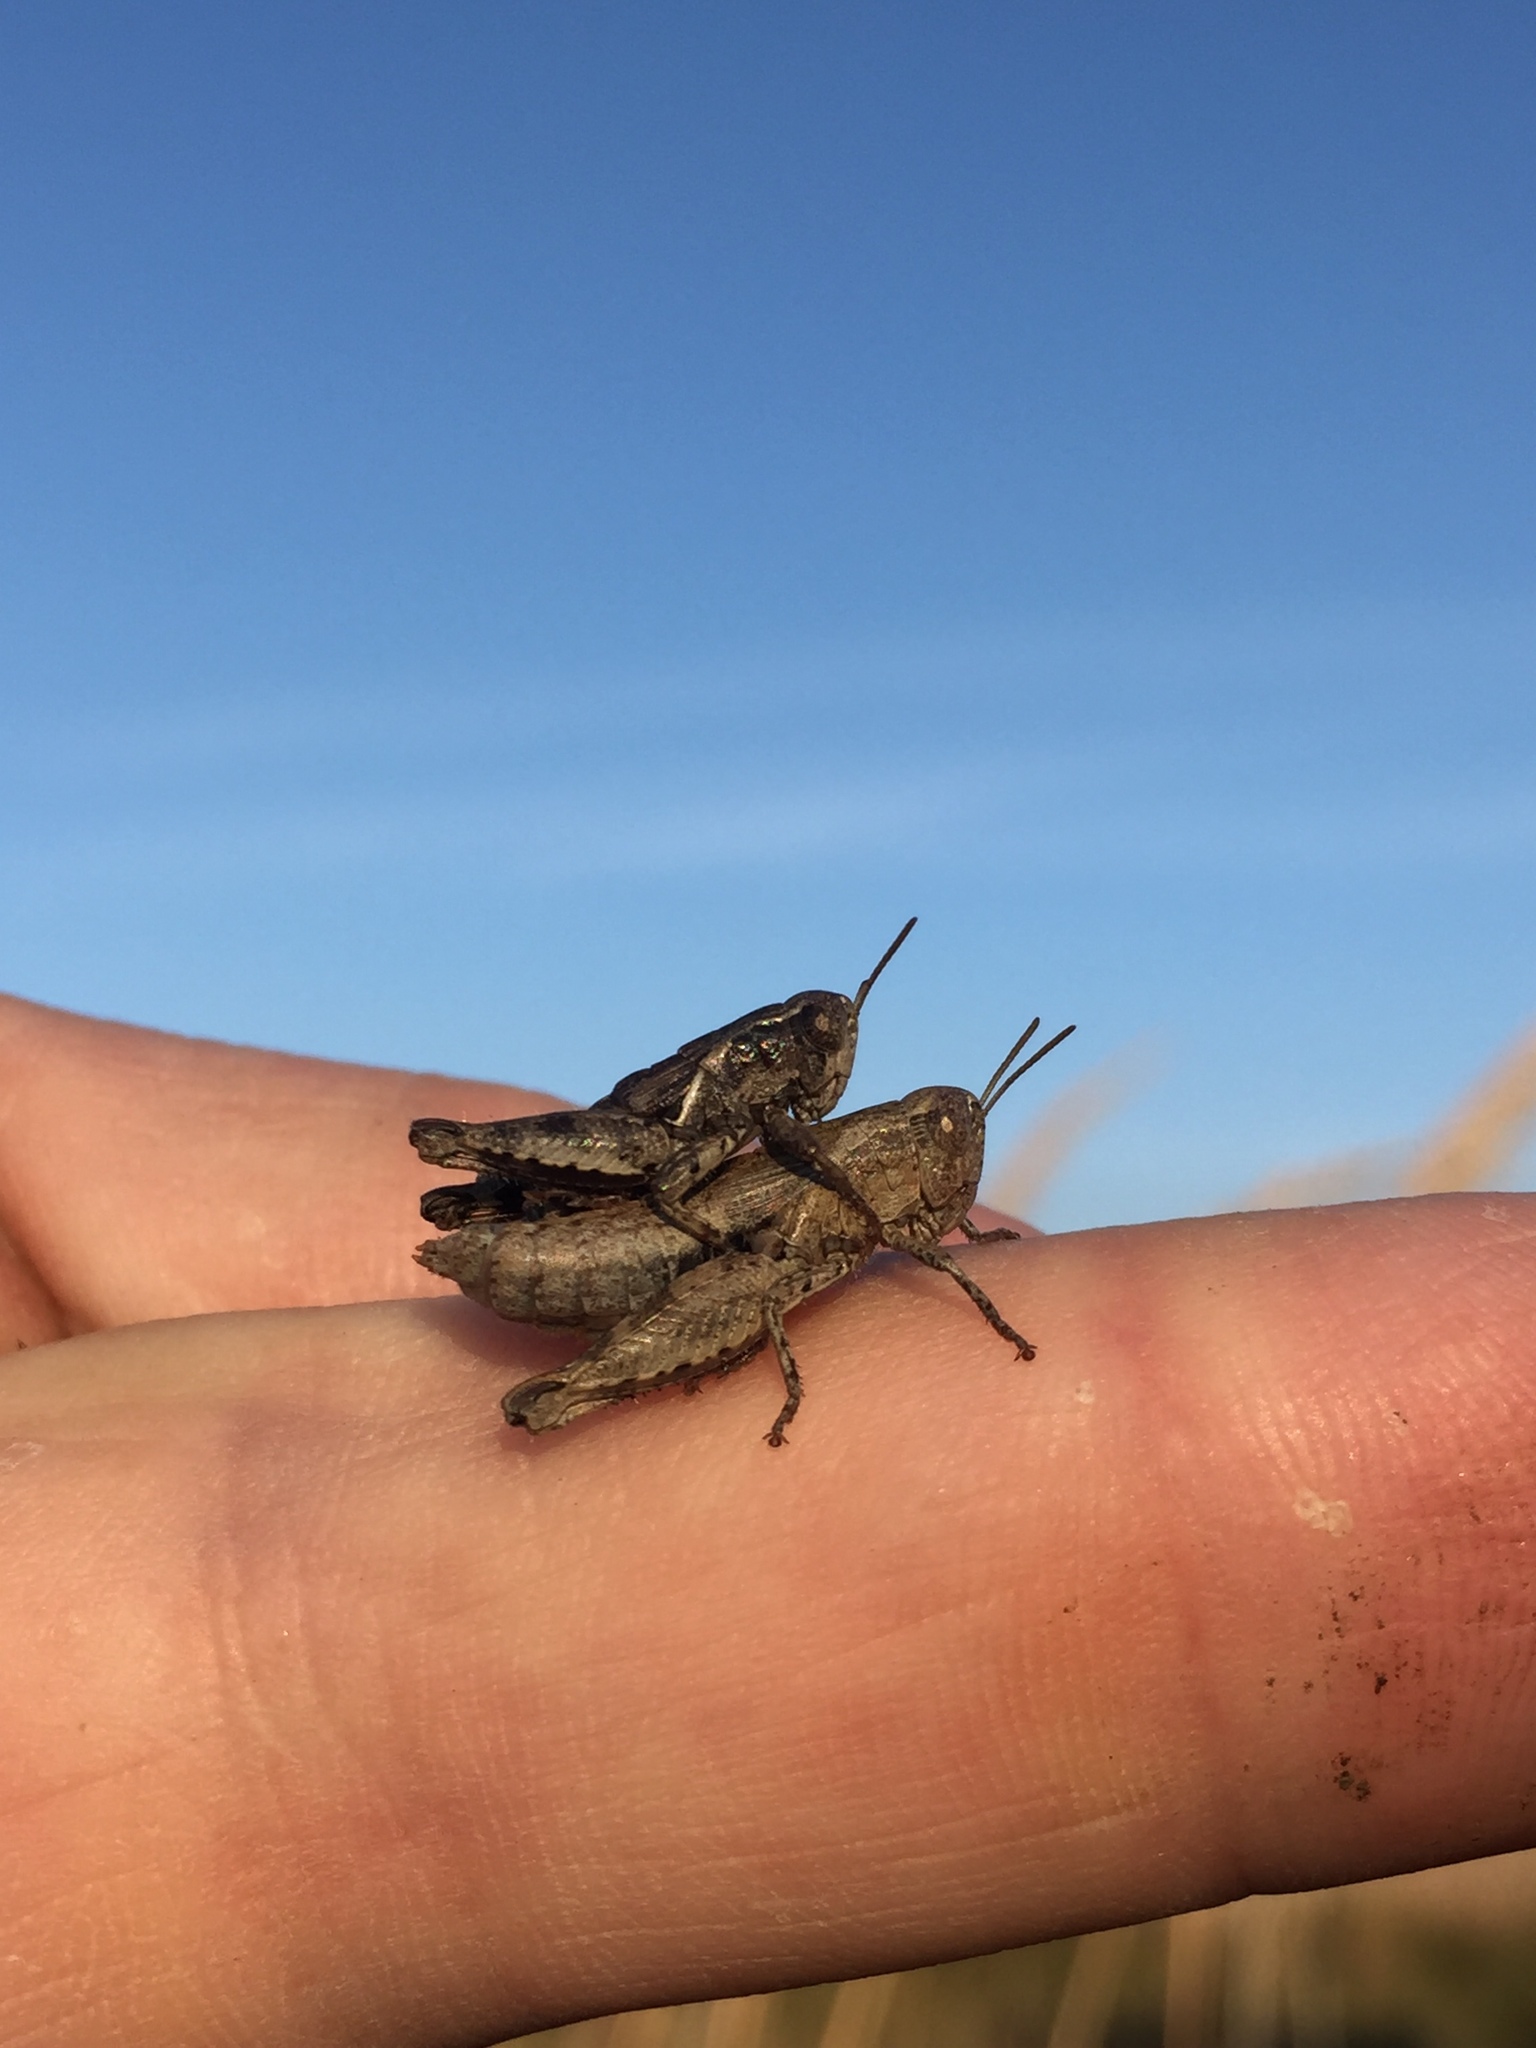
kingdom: Animalia
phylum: Arthropoda
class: Insecta
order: Orthoptera
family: Acrididae
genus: Pezotettix
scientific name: Pezotettix giornae
